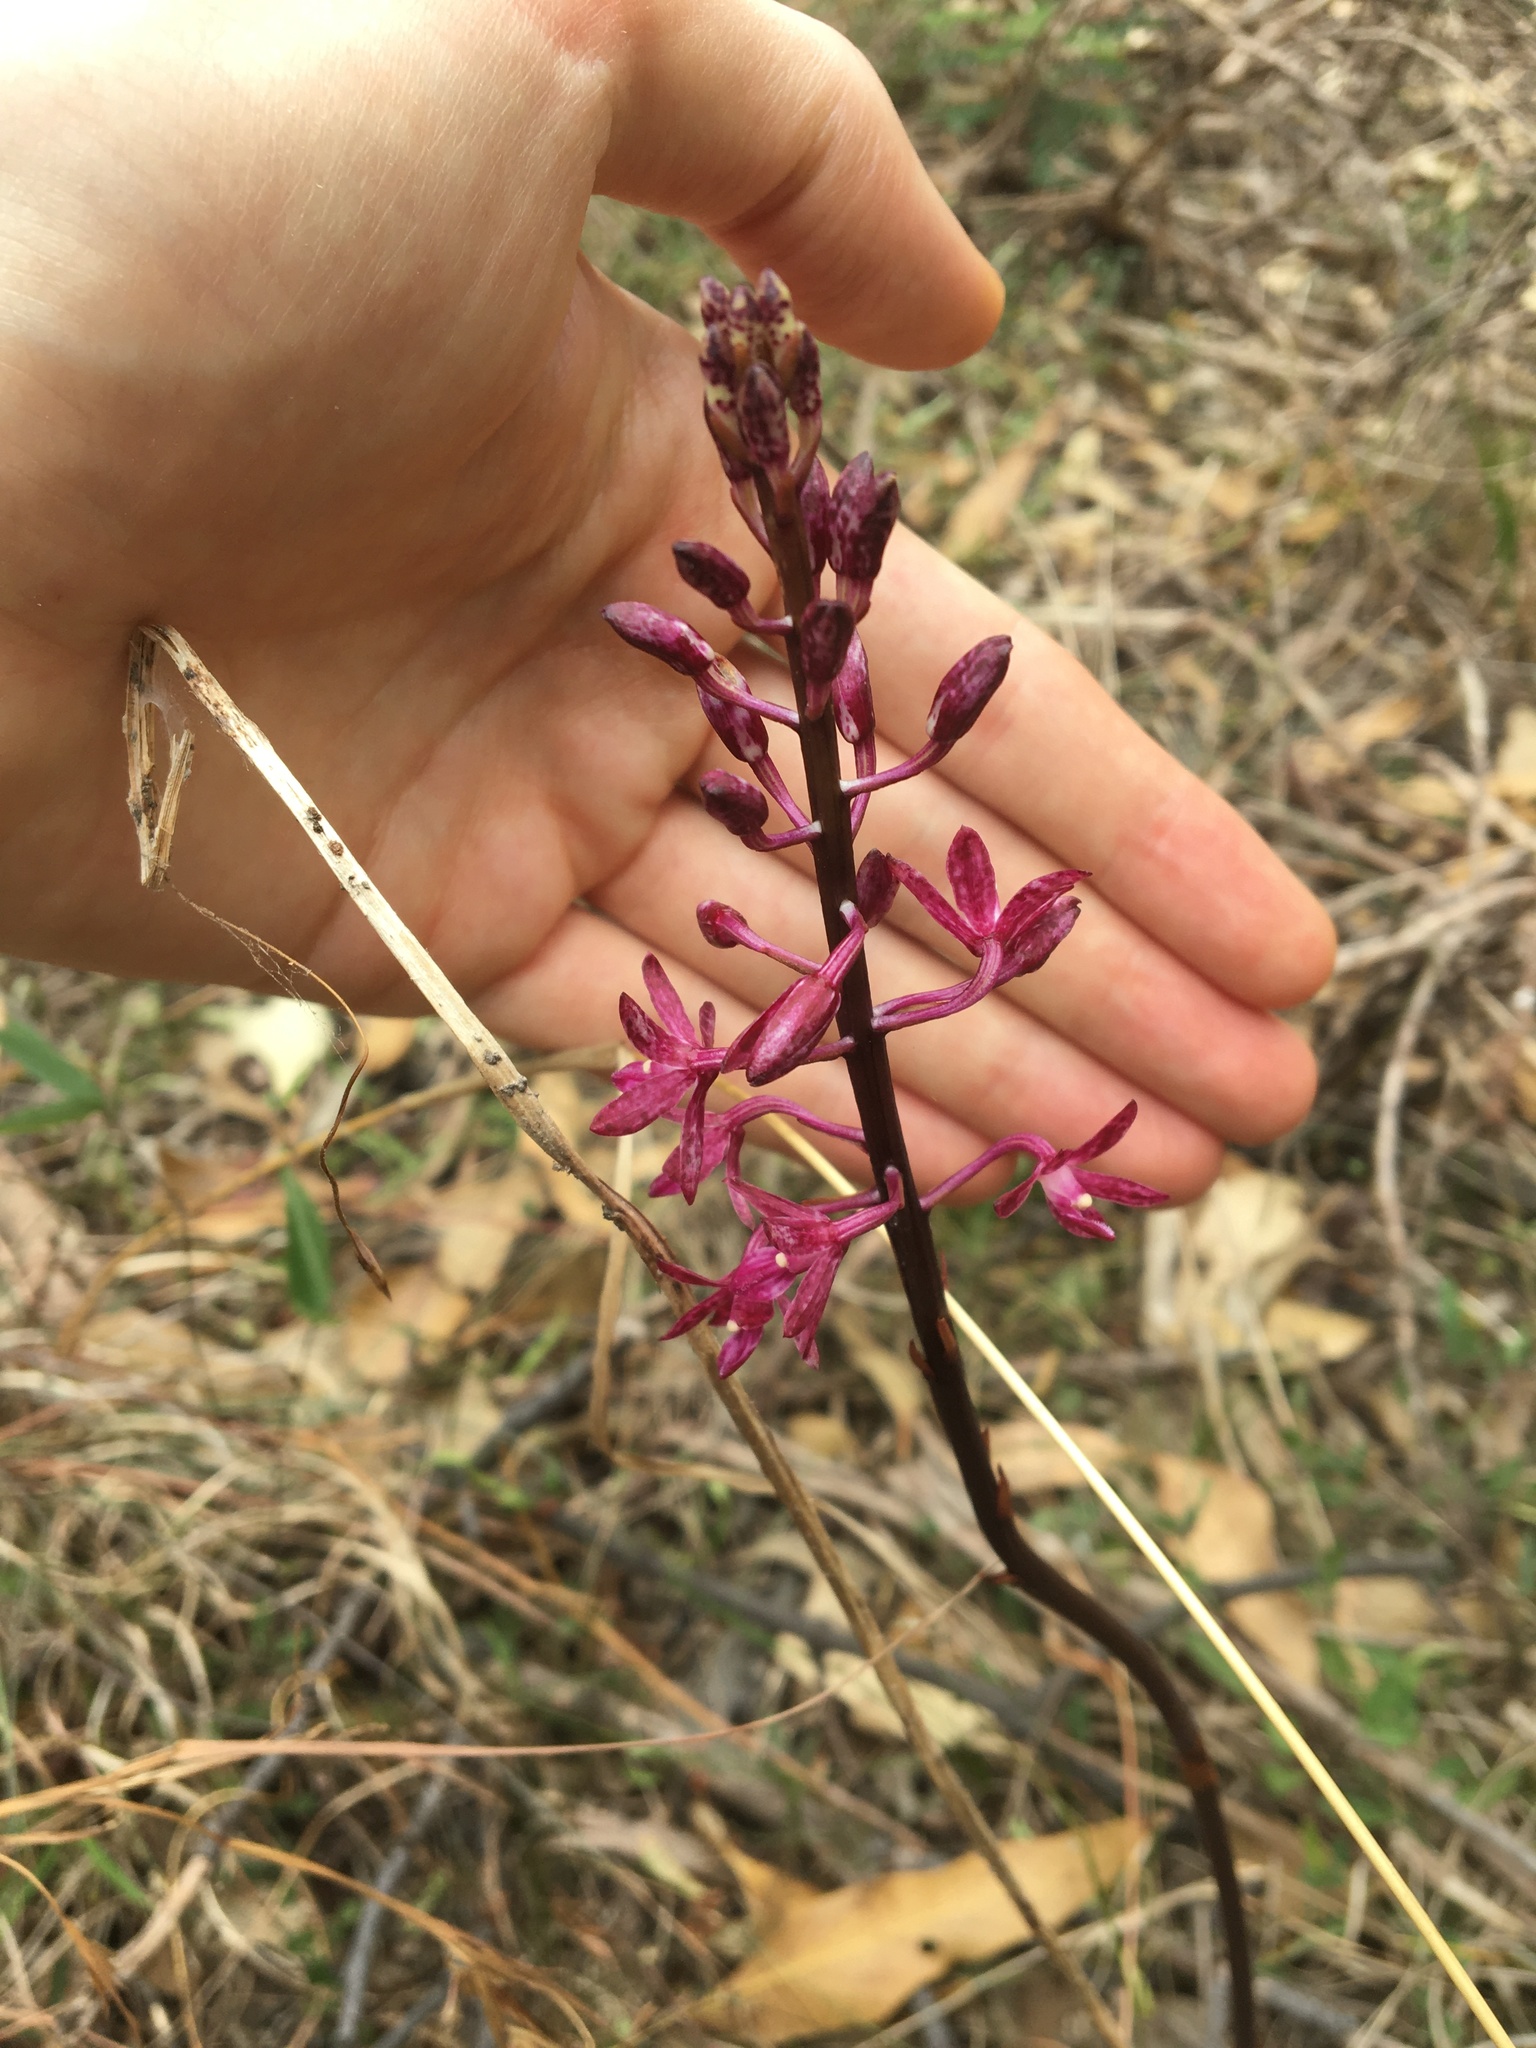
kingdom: Plantae
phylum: Tracheophyta
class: Liliopsida
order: Asparagales
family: Orchidaceae
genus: Dipodium
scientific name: Dipodium squamatum
